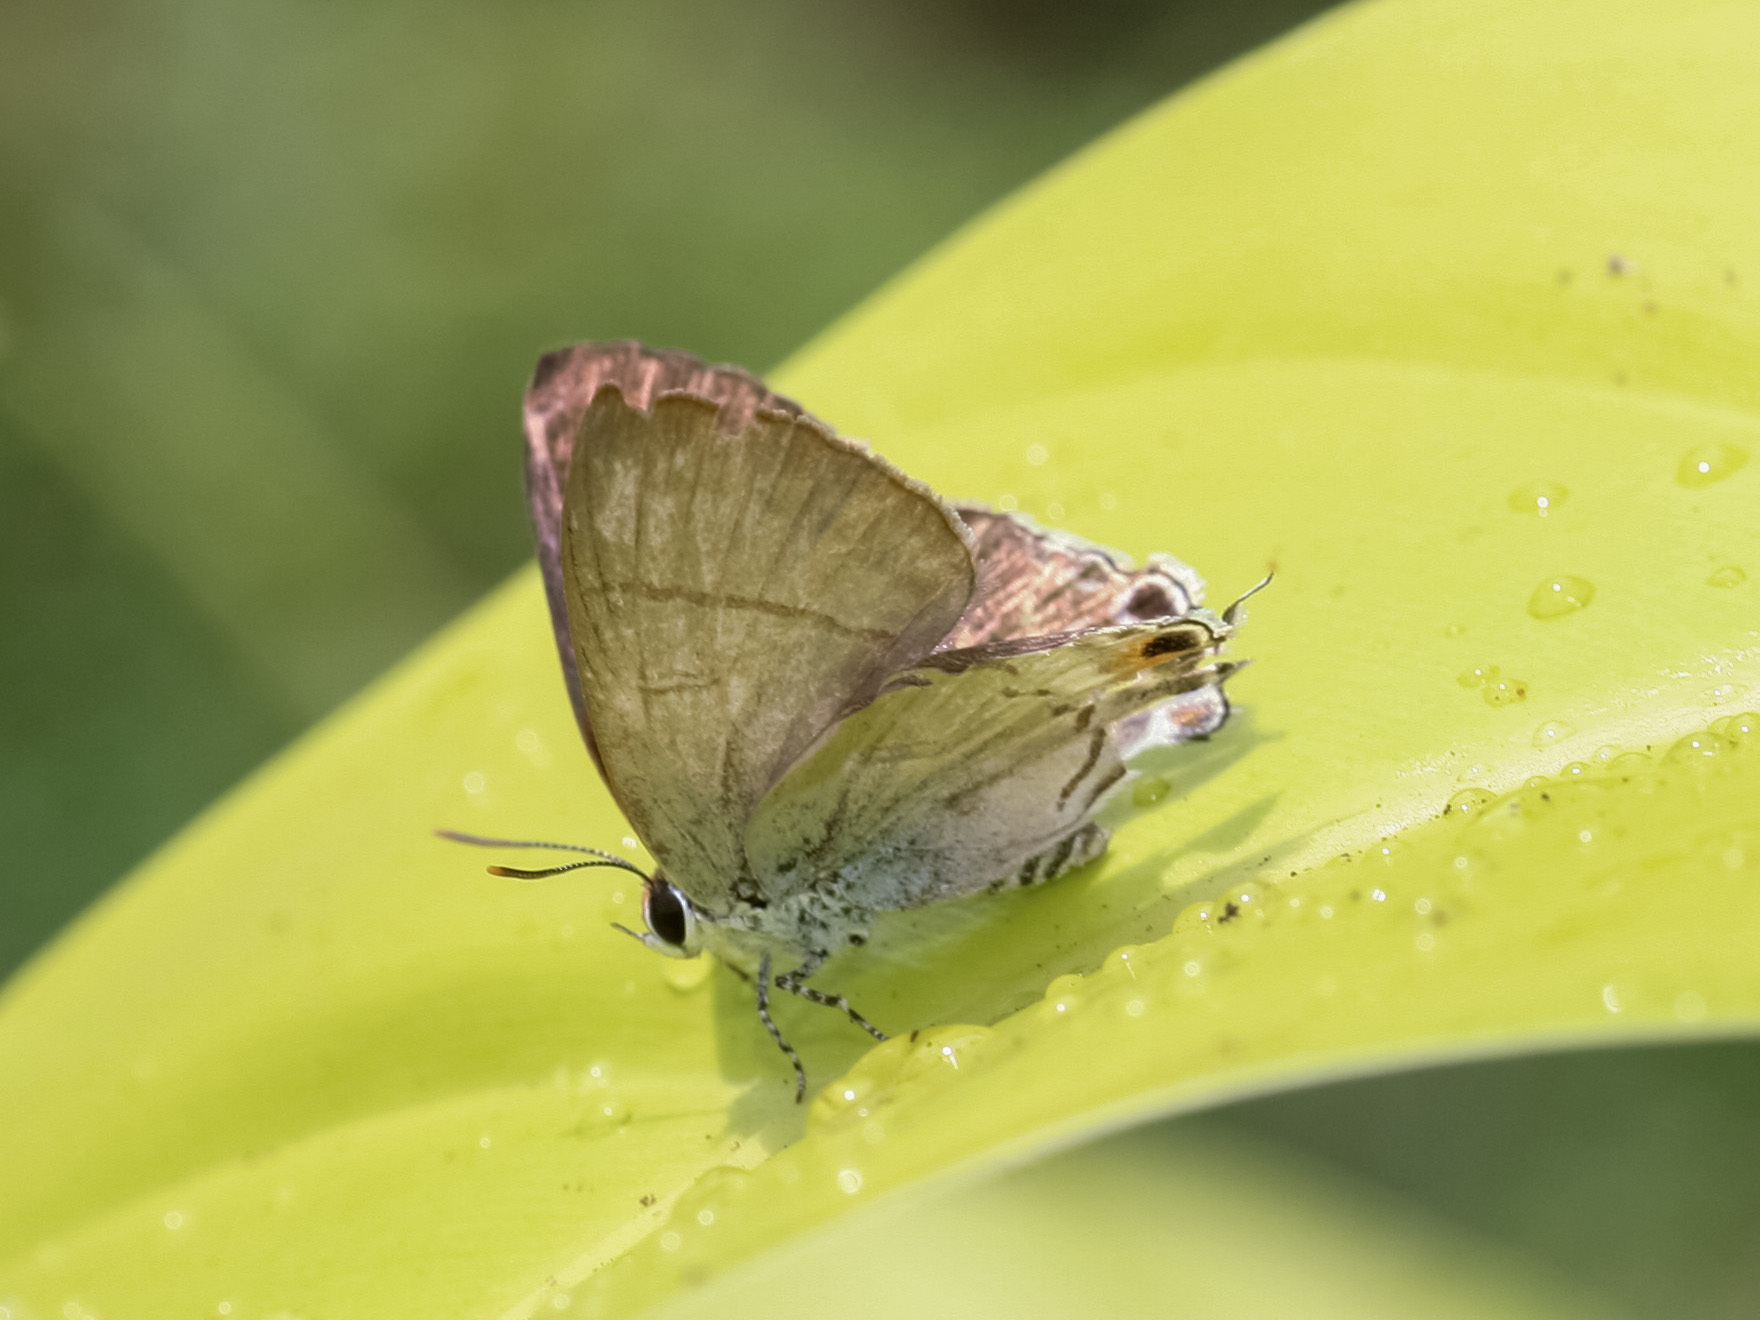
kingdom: Animalia
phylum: Arthropoda
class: Insecta
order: Lepidoptera
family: Lycaenidae
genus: Hypolycaena
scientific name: Hypolycaena erylus
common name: Common tit
